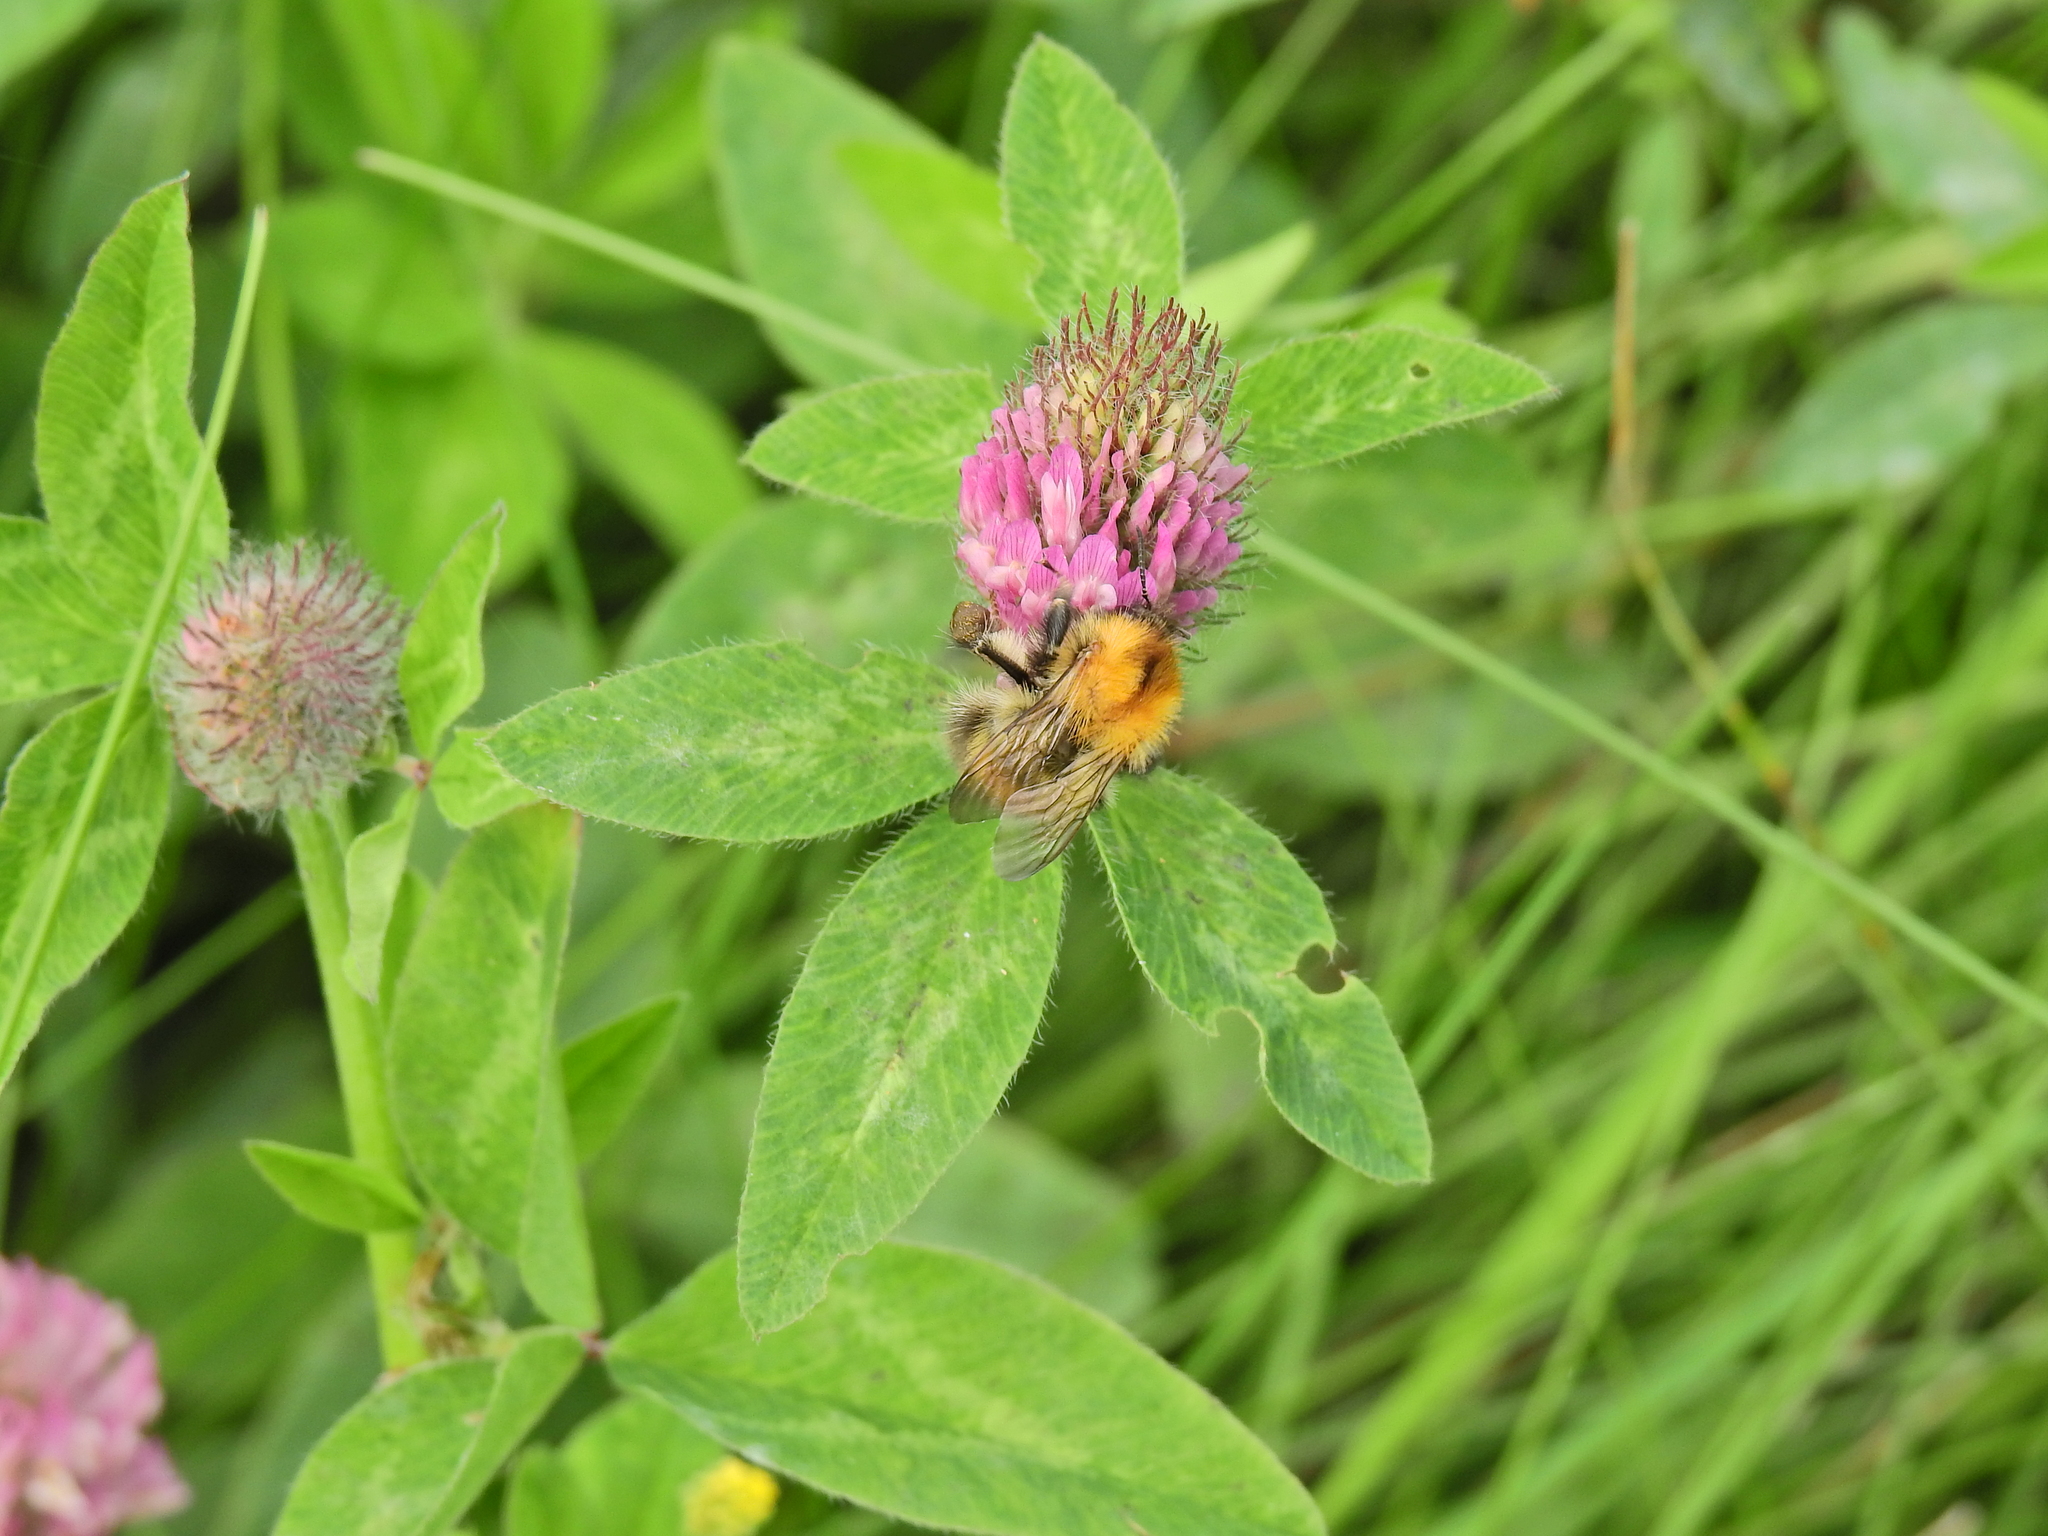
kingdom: Animalia
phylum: Arthropoda
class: Insecta
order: Hymenoptera
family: Apidae
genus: Bombus
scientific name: Bombus pascuorum
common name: Common carder bee
